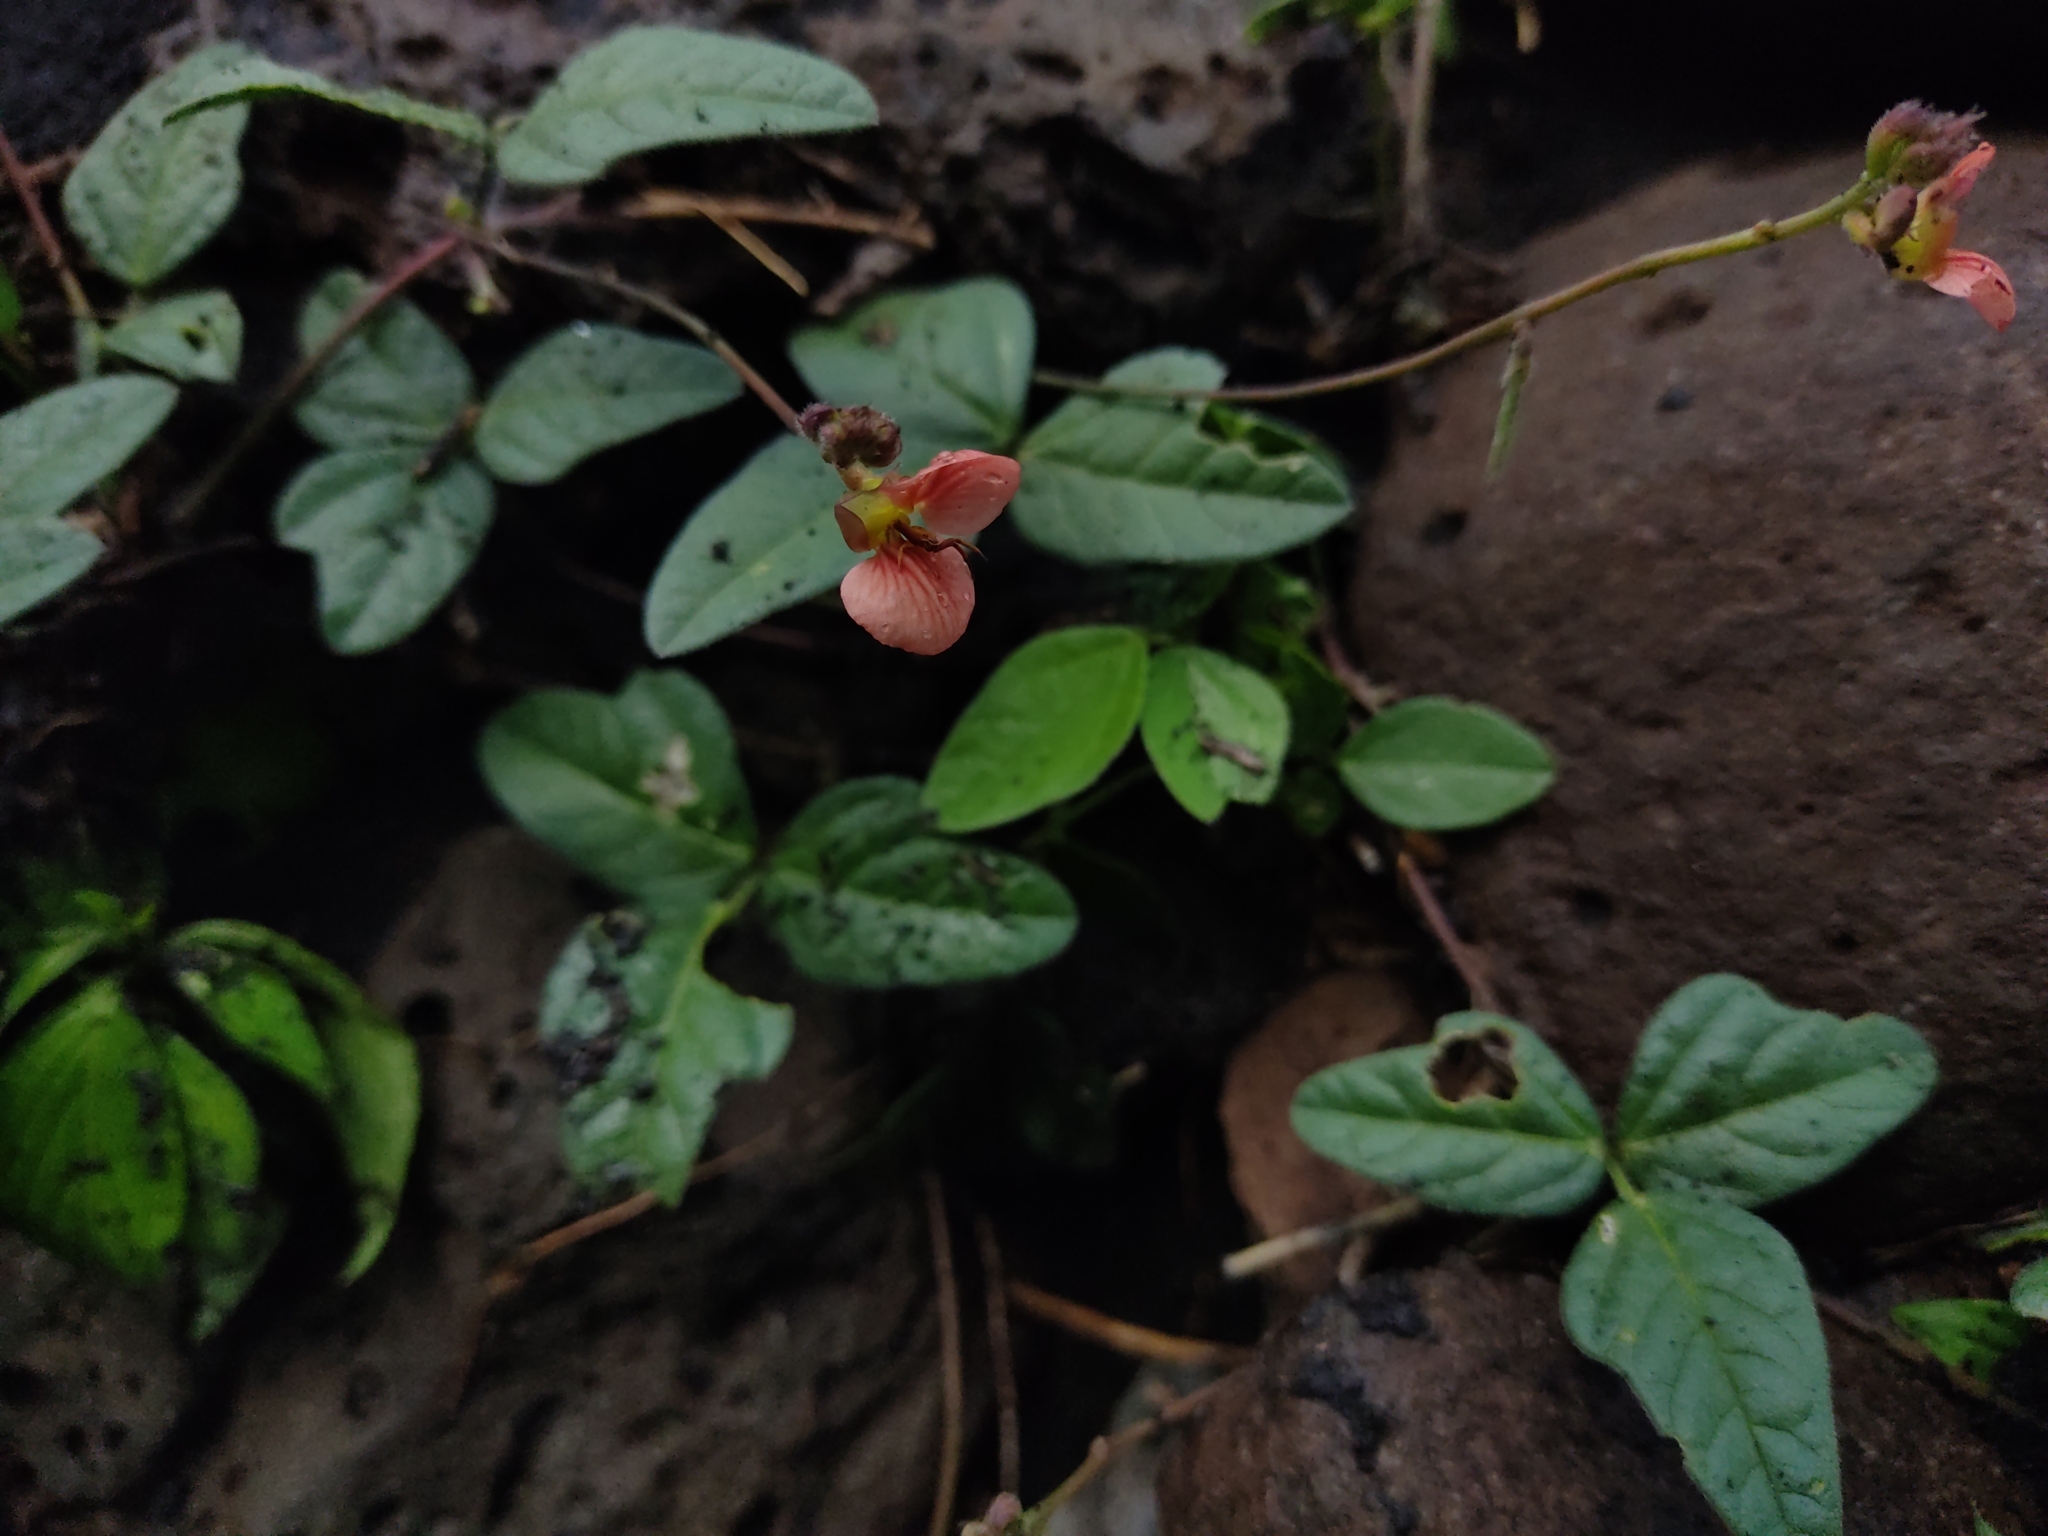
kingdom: Plantae
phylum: Tracheophyta
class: Magnoliopsida
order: Fabales
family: Fabaceae
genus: Macroptilium
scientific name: Macroptilium gibbosifolium
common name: Variableleaf bushbean
